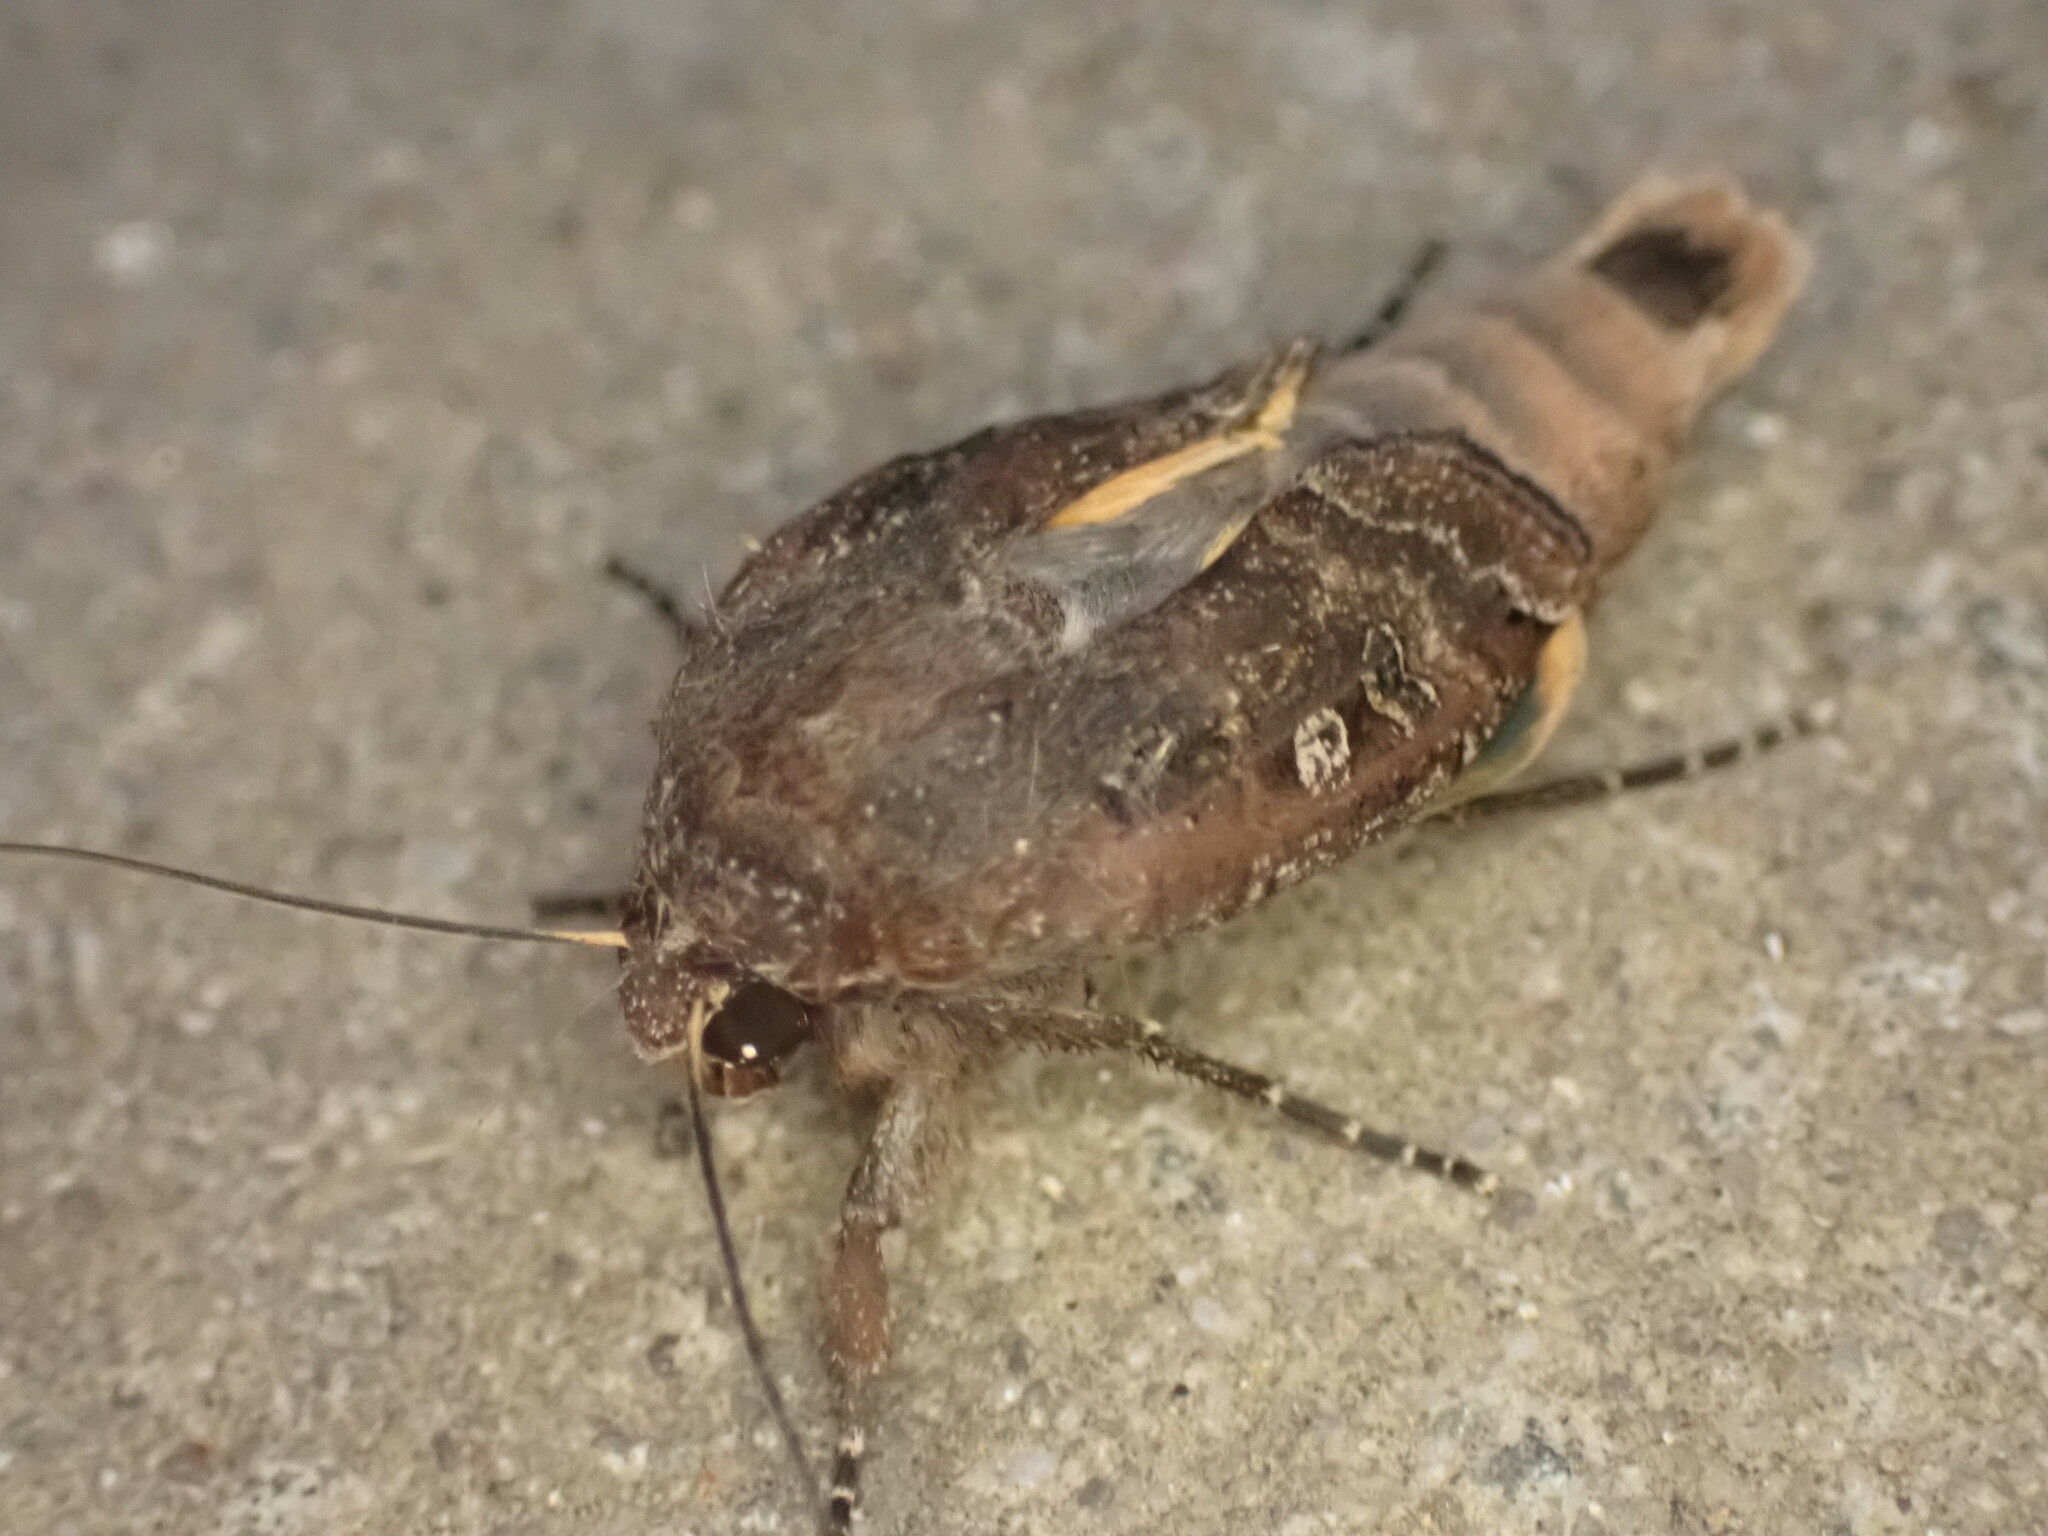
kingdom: Animalia
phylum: Arthropoda
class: Insecta
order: Lepidoptera
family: Noctuidae
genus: Noctua
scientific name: Noctua pronuba
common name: Large yellow underwing
